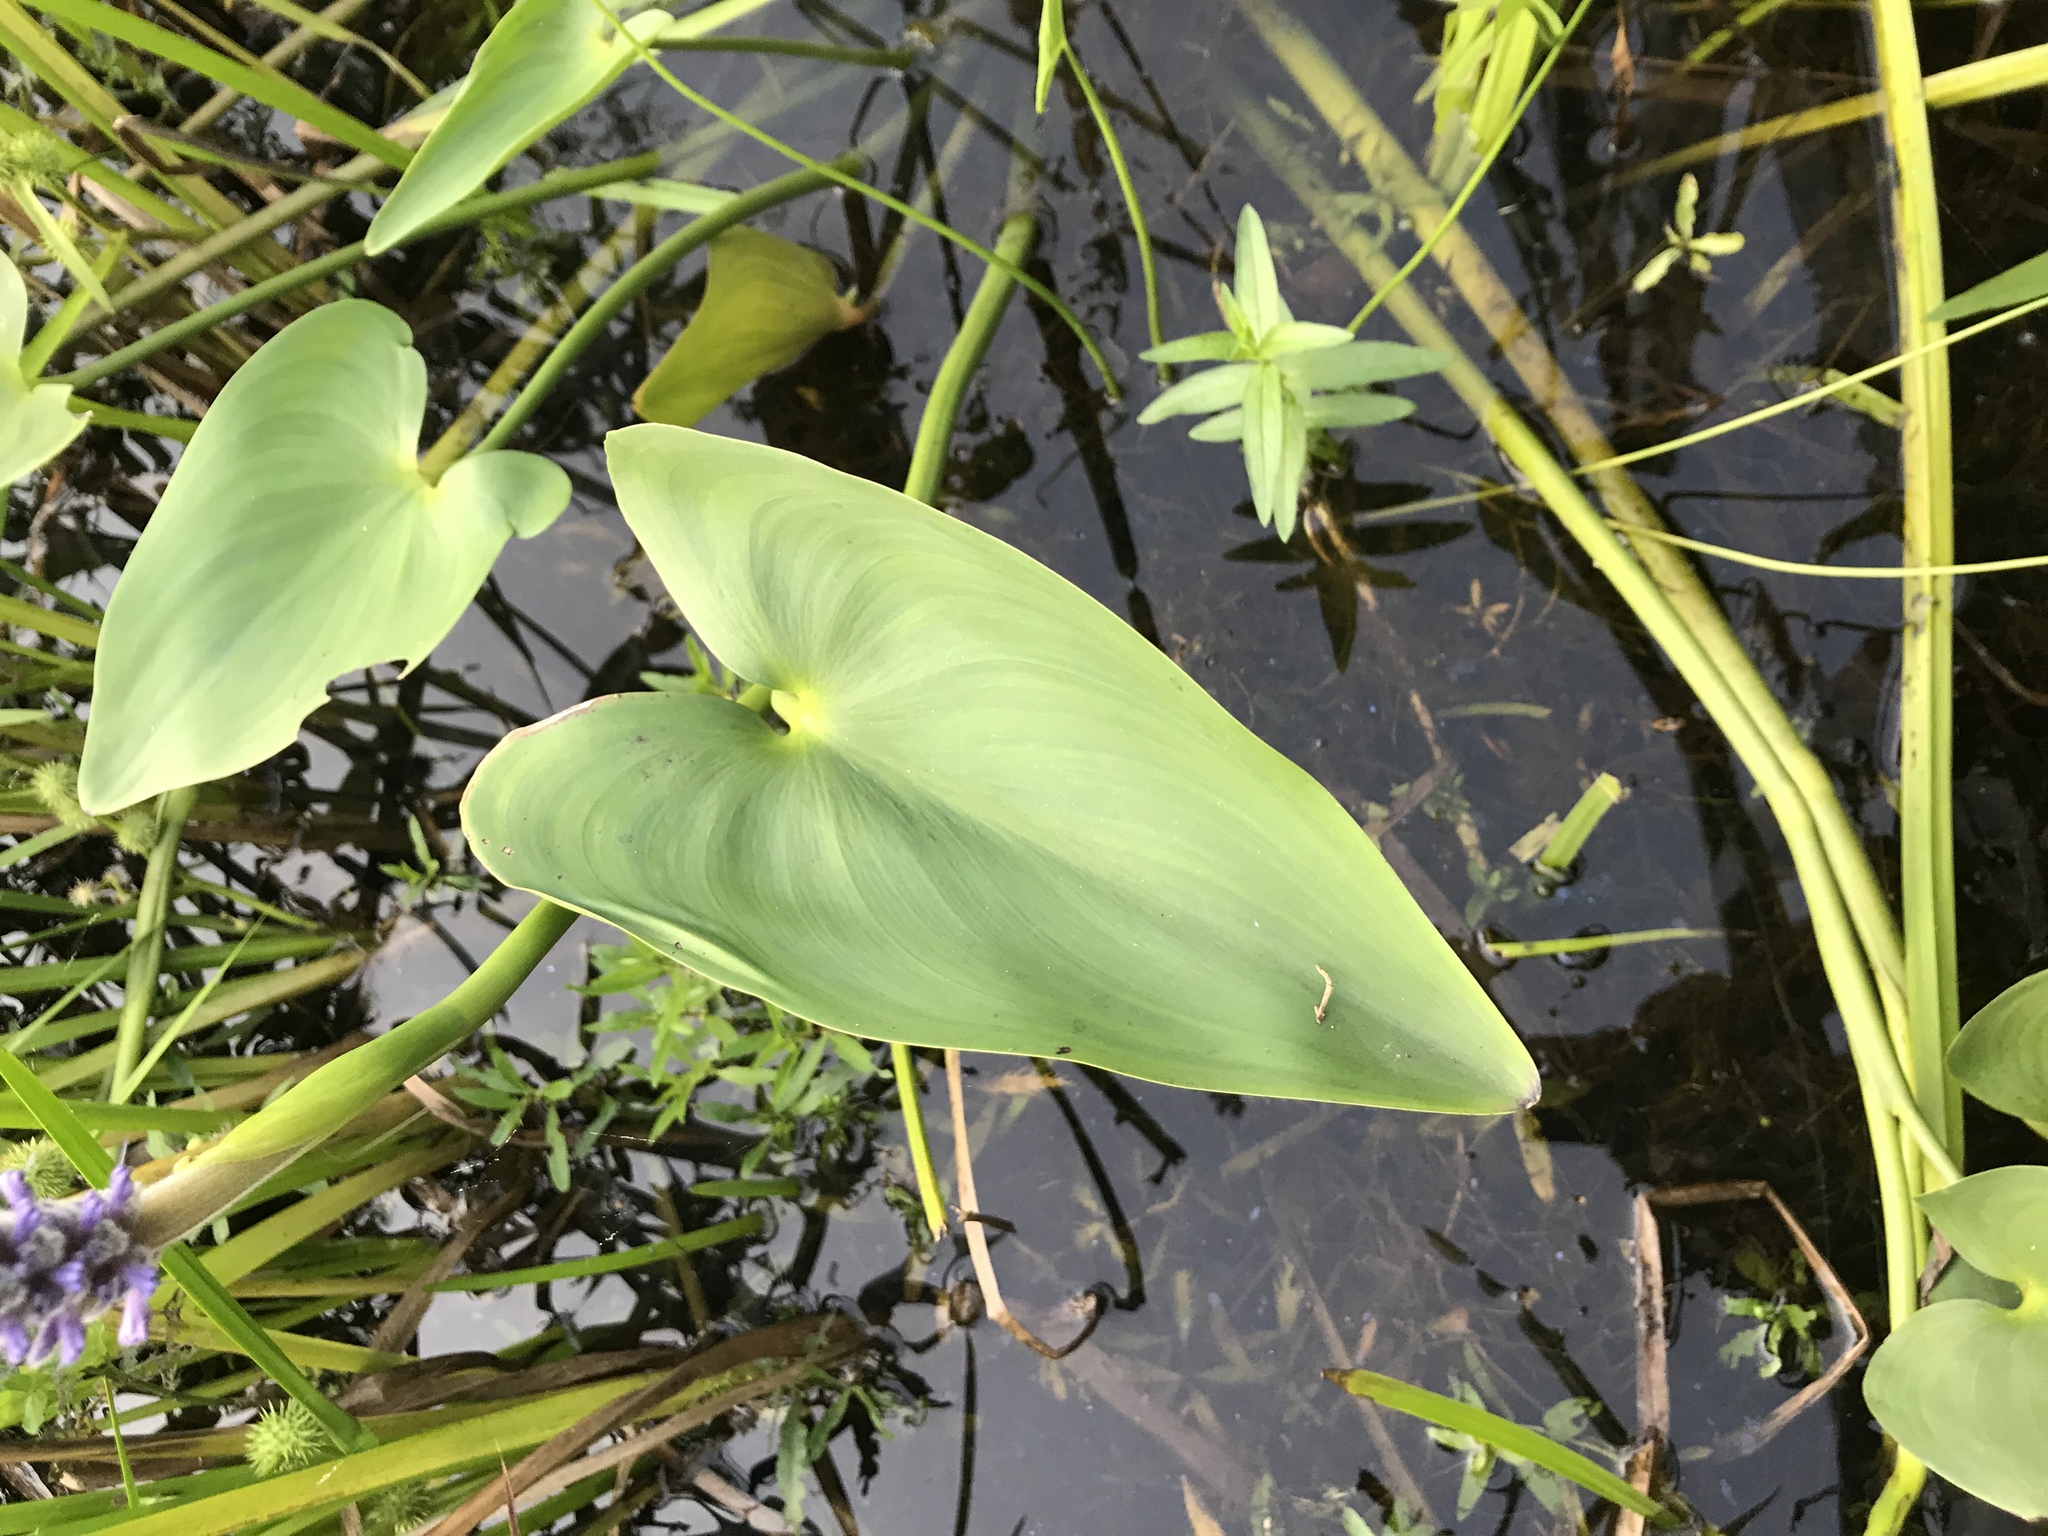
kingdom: Plantae
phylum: Tracheophyta
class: Liliopsida
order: Commelinales
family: Pontederiaceae
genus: Pontederia
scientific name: Pontederia cordata
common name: Pickerelweed
